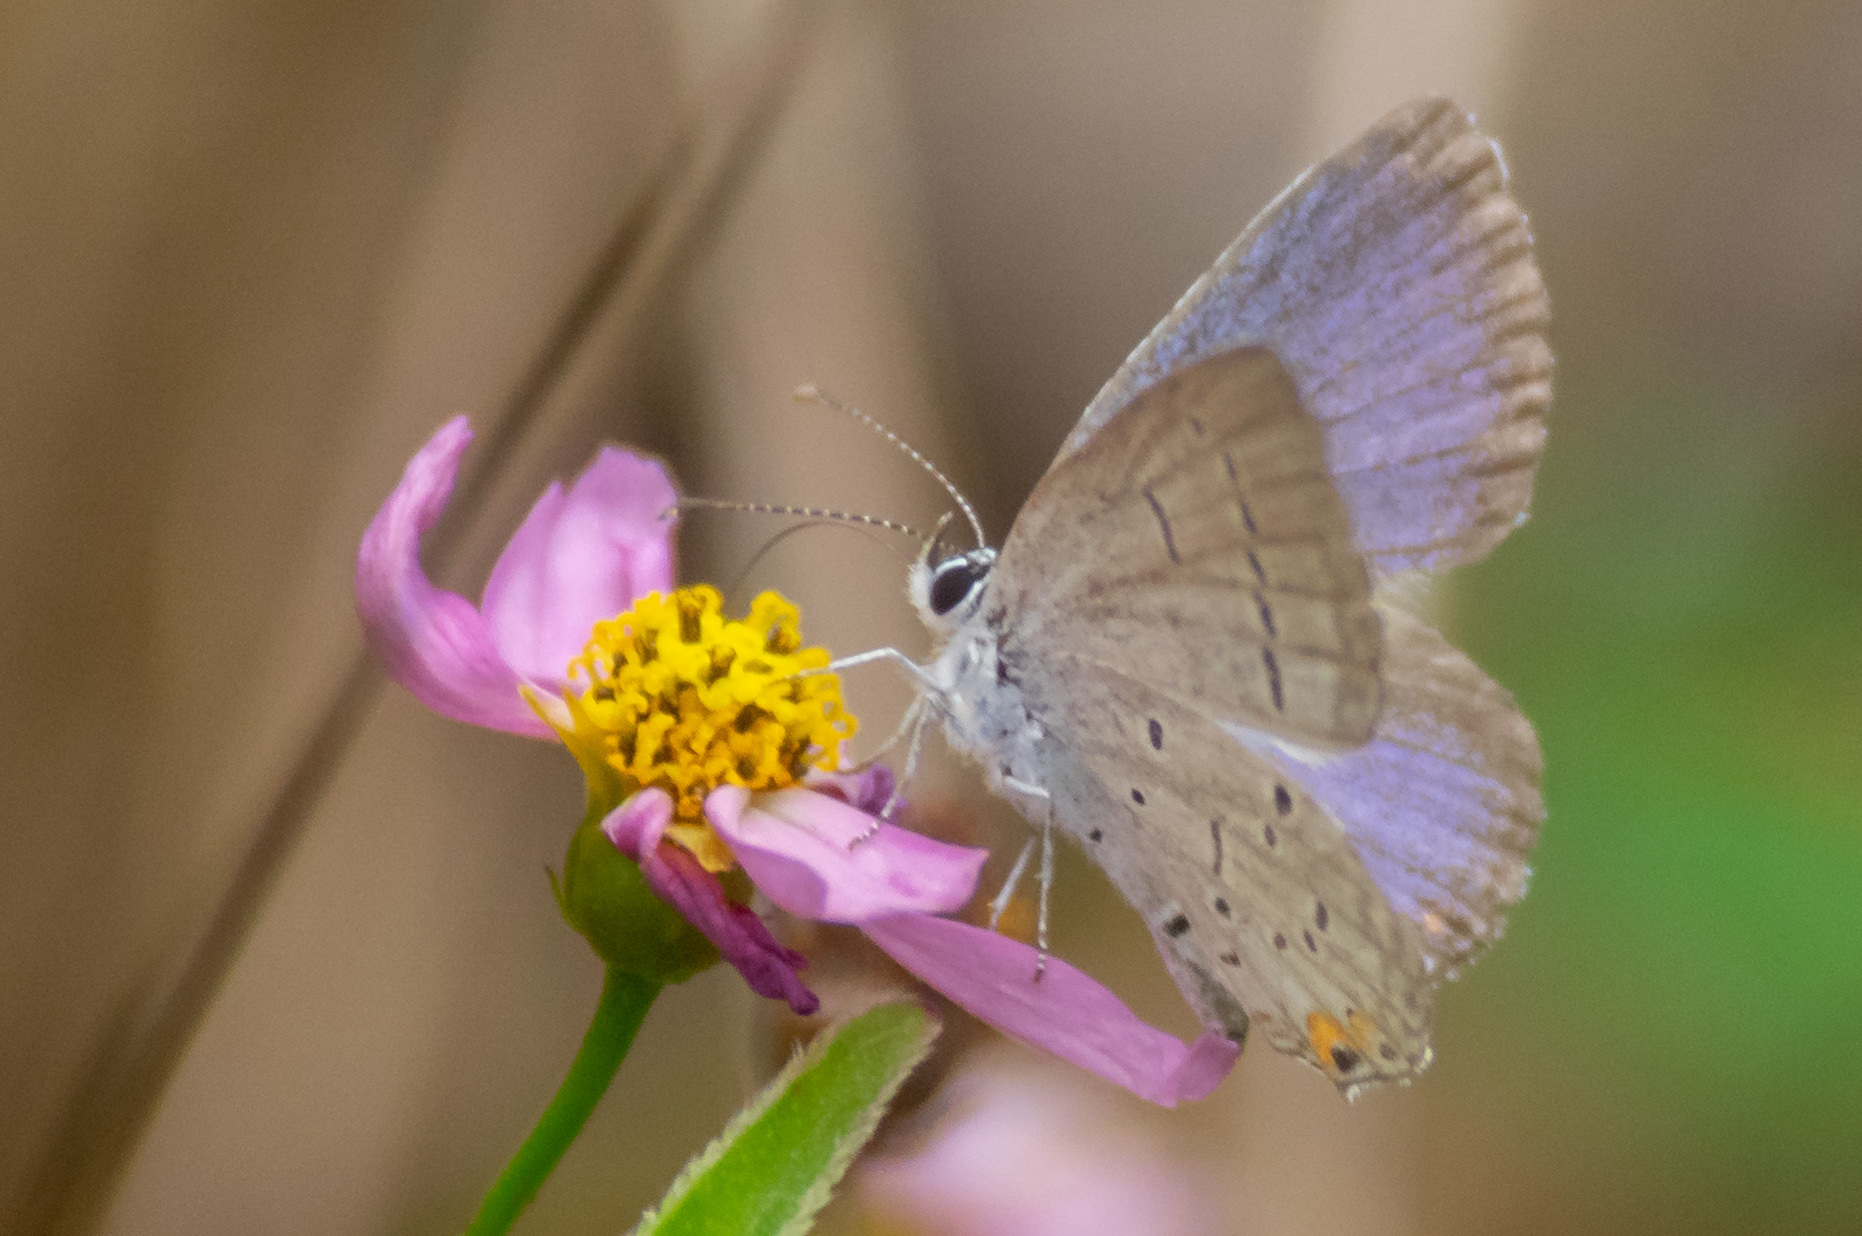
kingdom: Animalia
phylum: Arthropoda
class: Insecta
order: Lepidoptera
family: Lycaenidae
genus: Elkalyce
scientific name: Elkalyce comyntas
